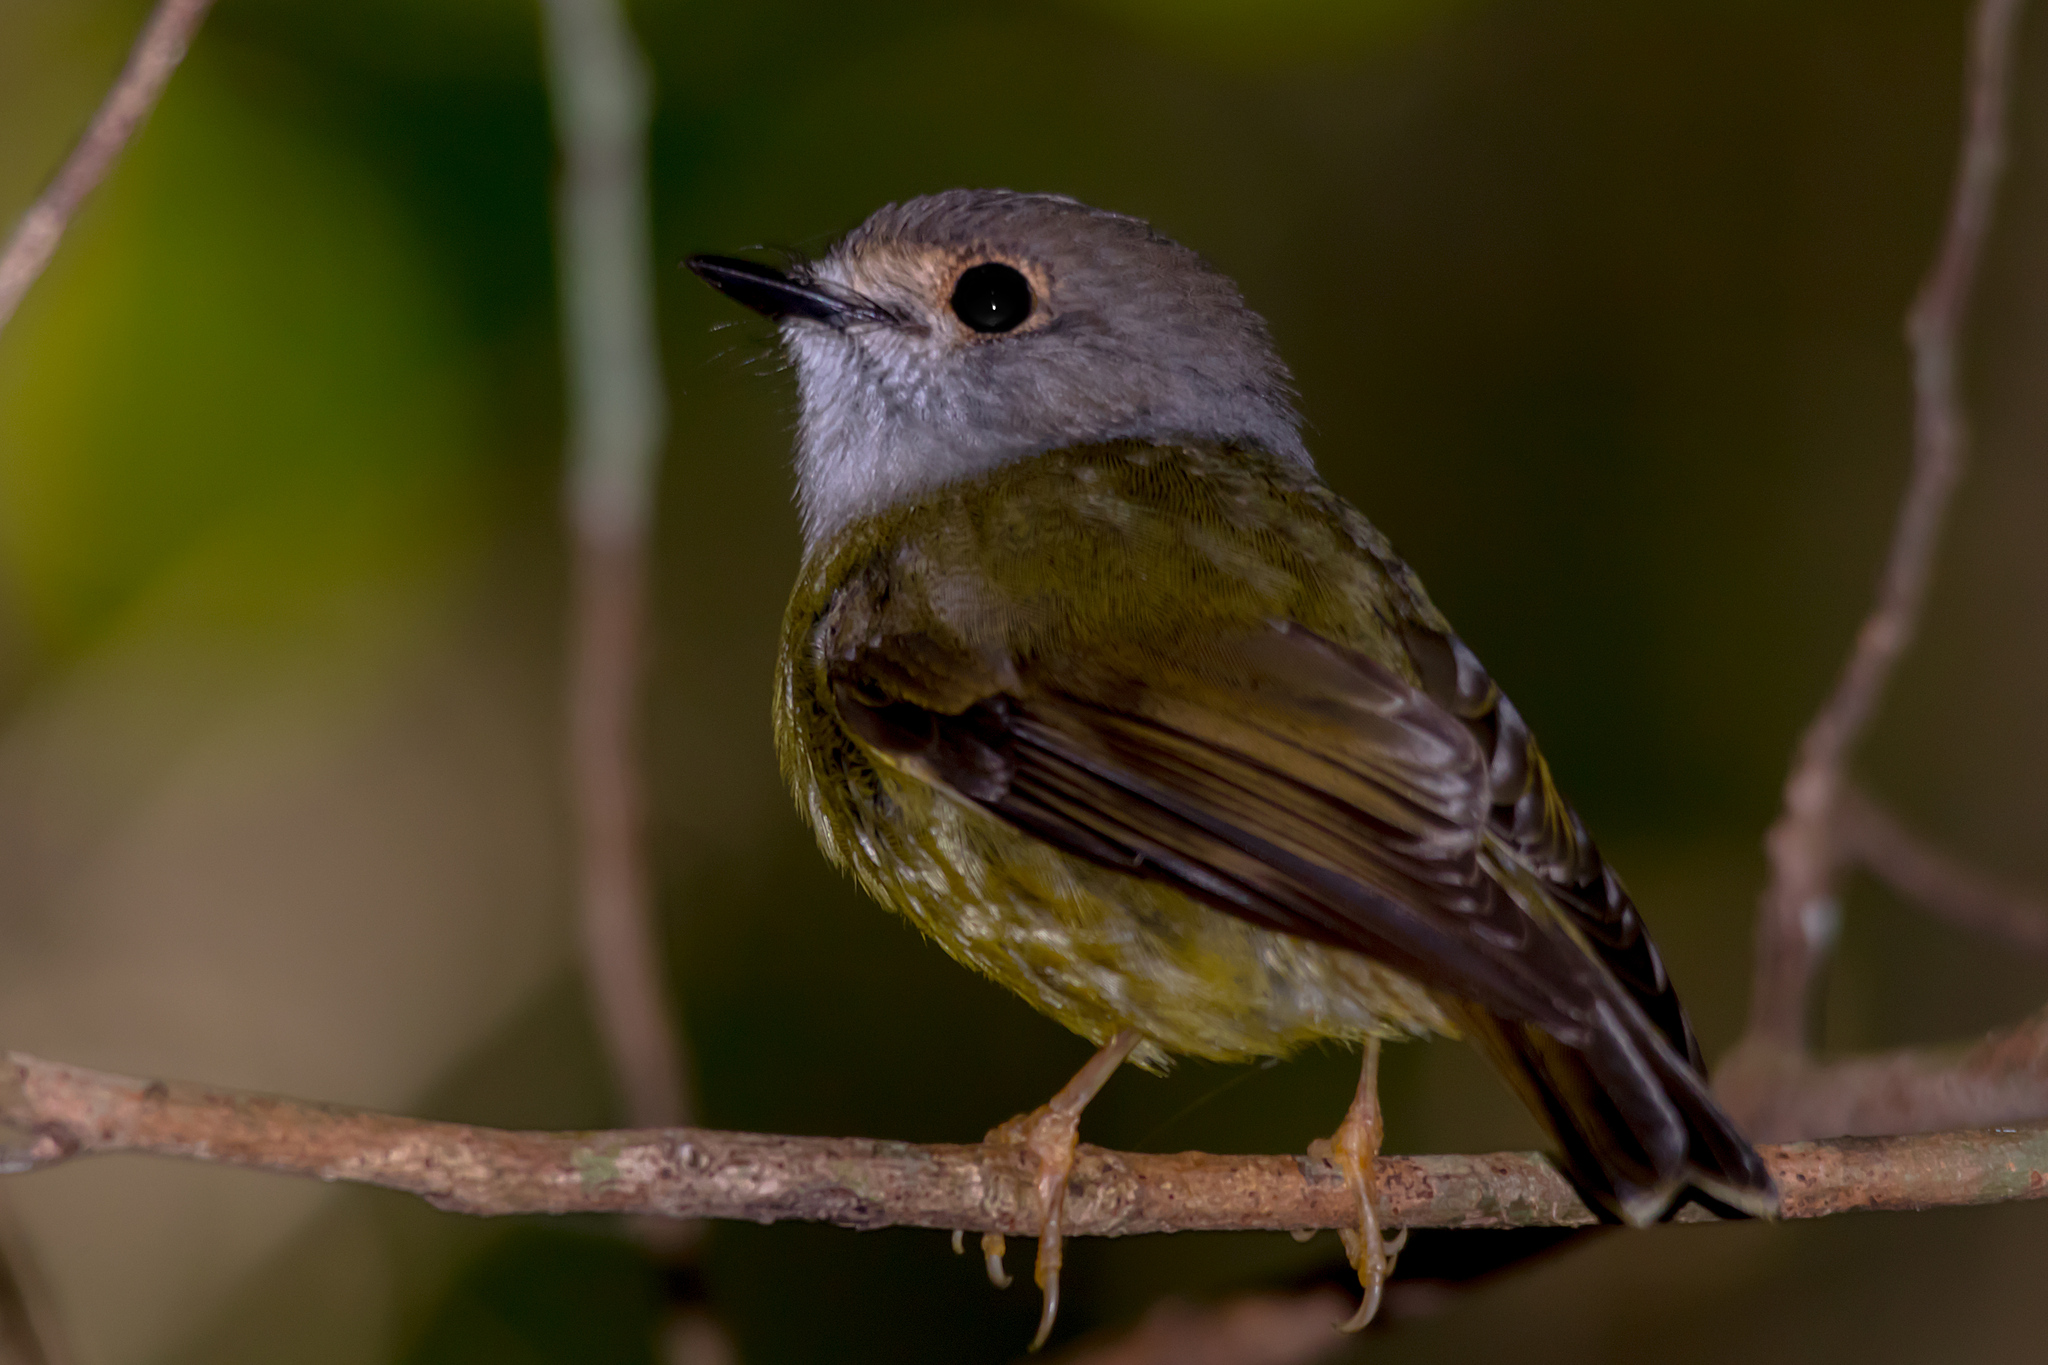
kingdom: Animalia
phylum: Chordata
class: Aves
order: Passeriformes
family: Petroicidae
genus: Eopsaltria
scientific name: Eopsaltria
